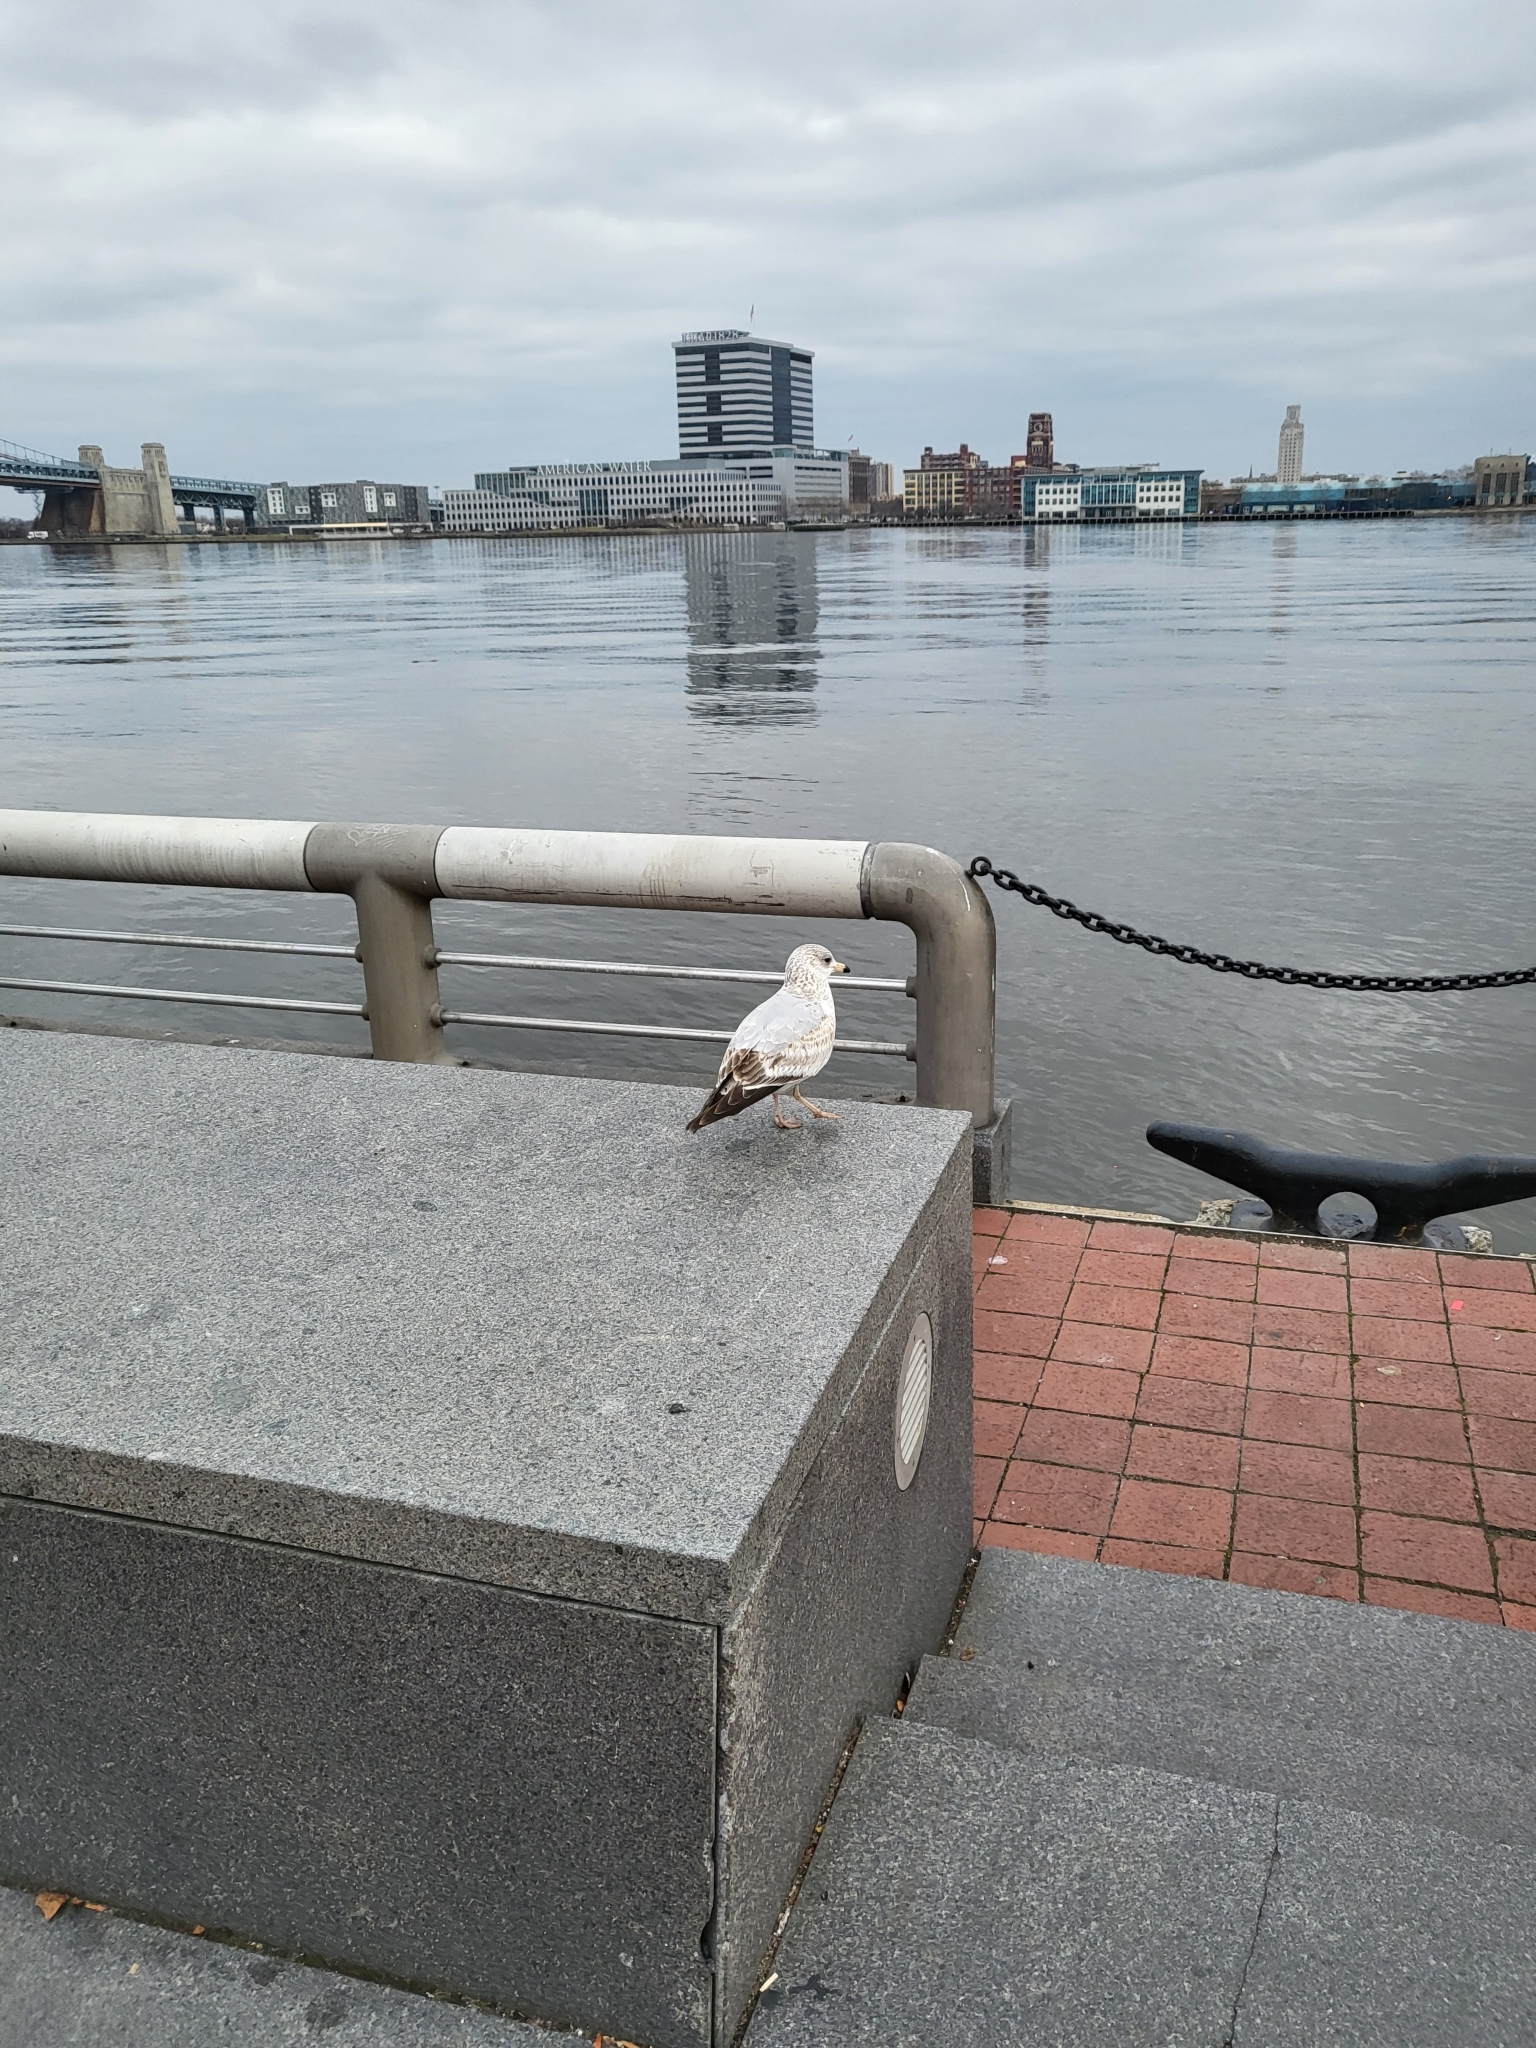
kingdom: Animalia
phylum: Chordata
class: Aves
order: Charadriiformes
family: Laridae
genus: Larus
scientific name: Larus delawarensis
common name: Ring-billed gull
